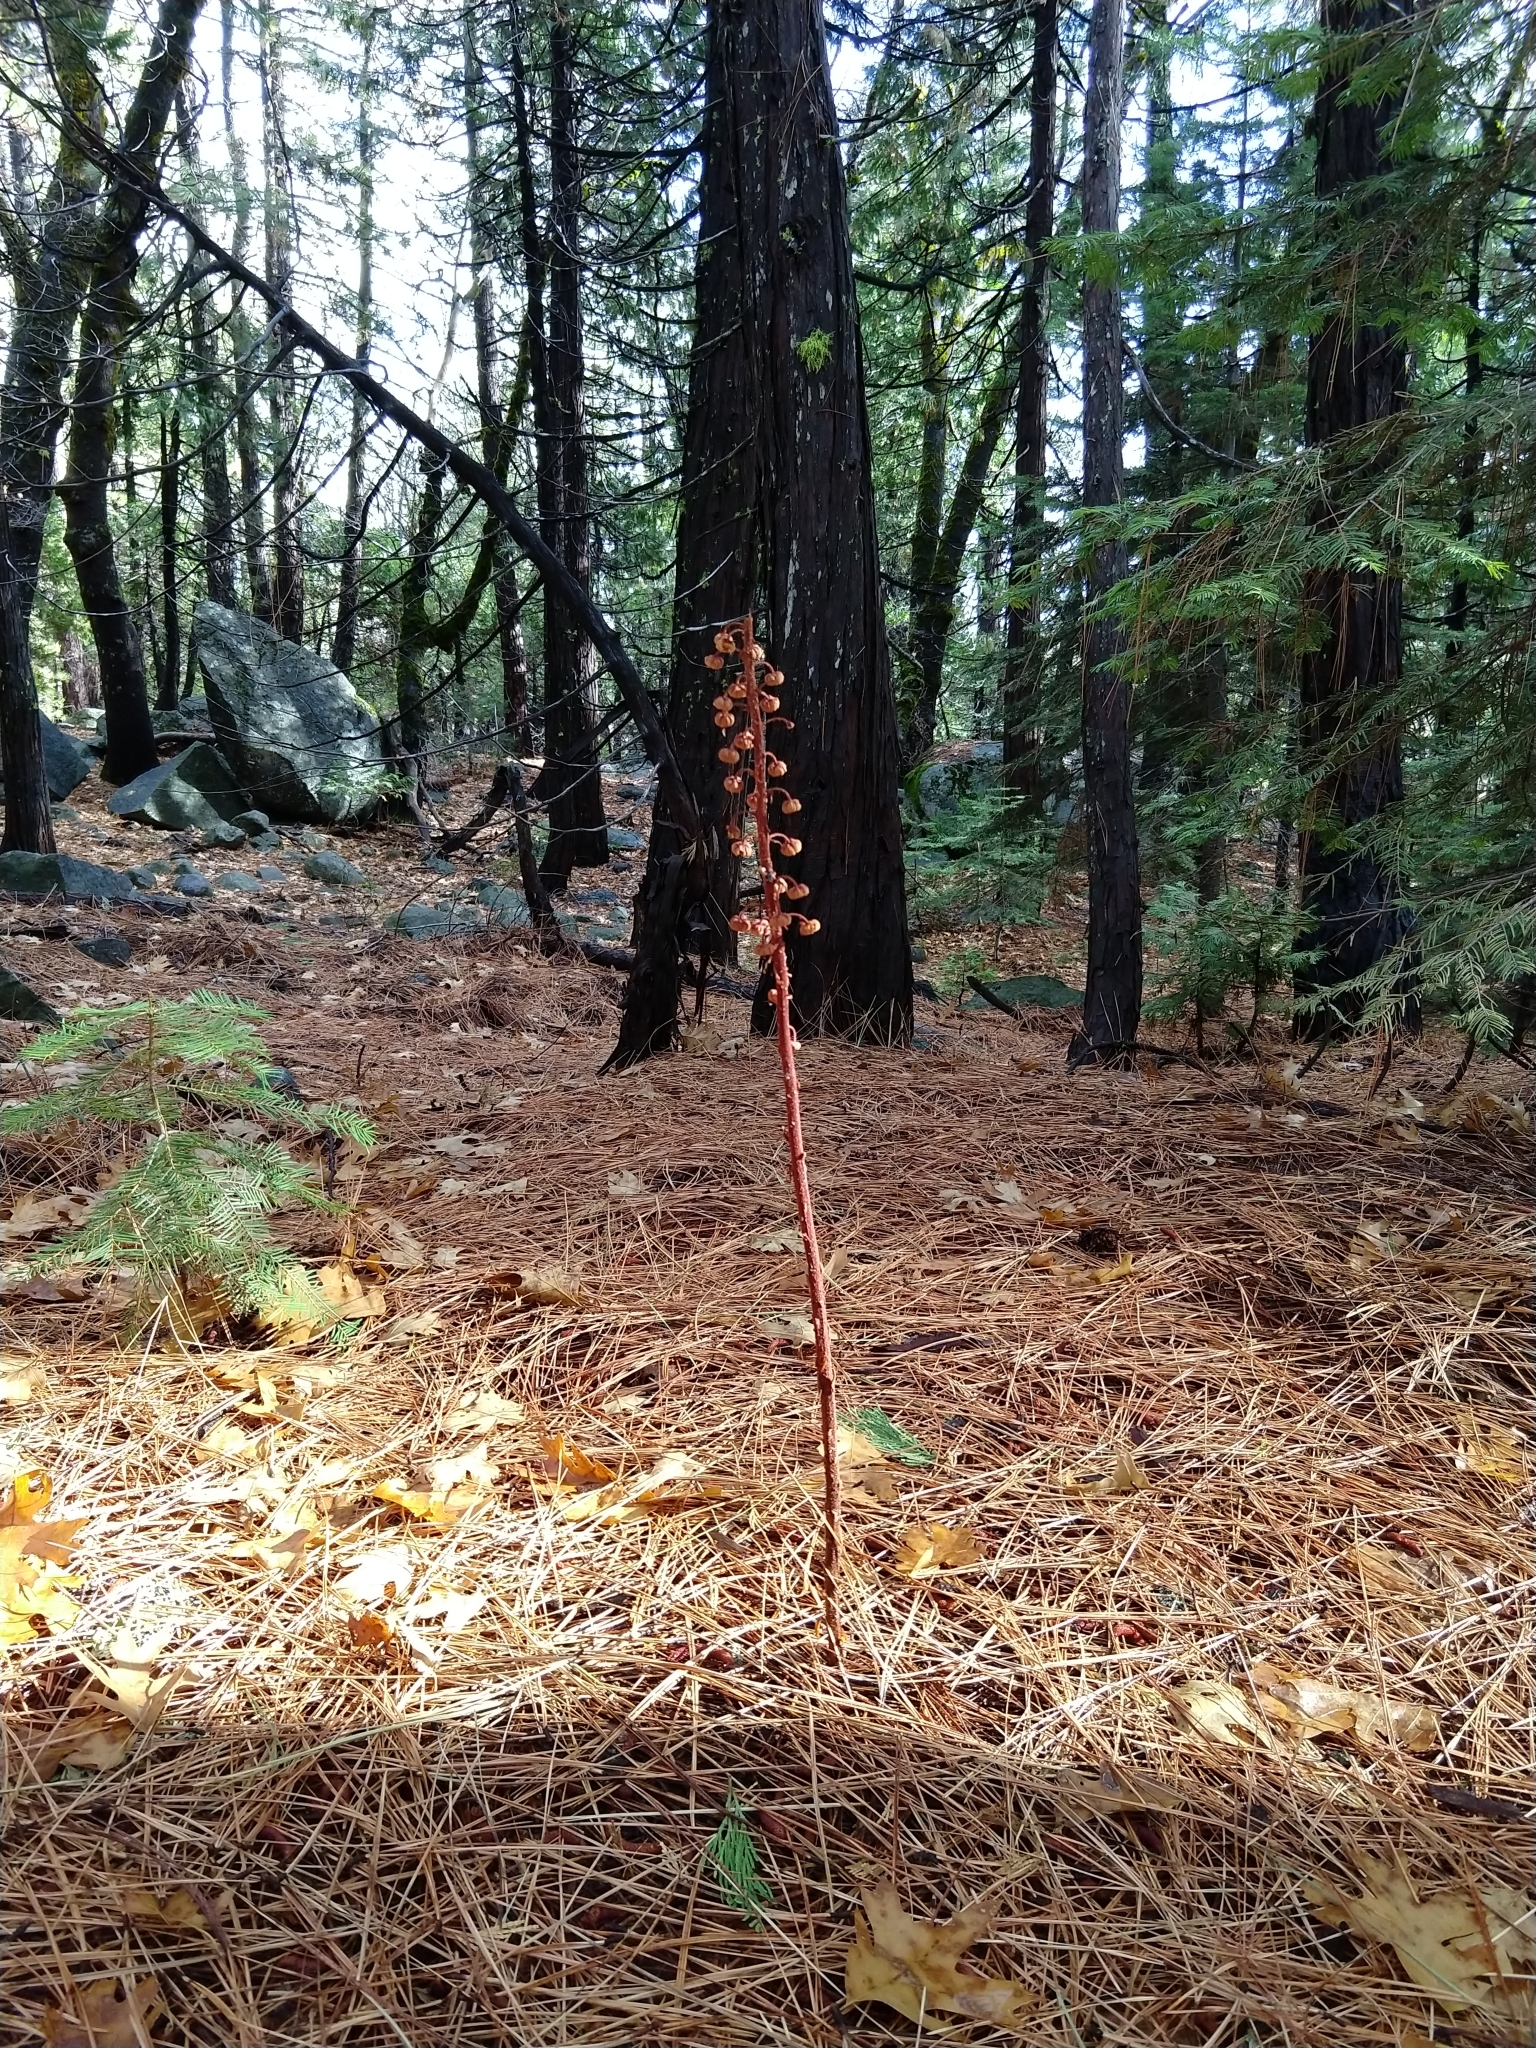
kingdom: Plantae
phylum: Tracheophyta
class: Magnoliopsida
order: Ericales
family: Ericaceae
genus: Pterospora
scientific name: Pterospora andromedea
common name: Giant bird's-nest
